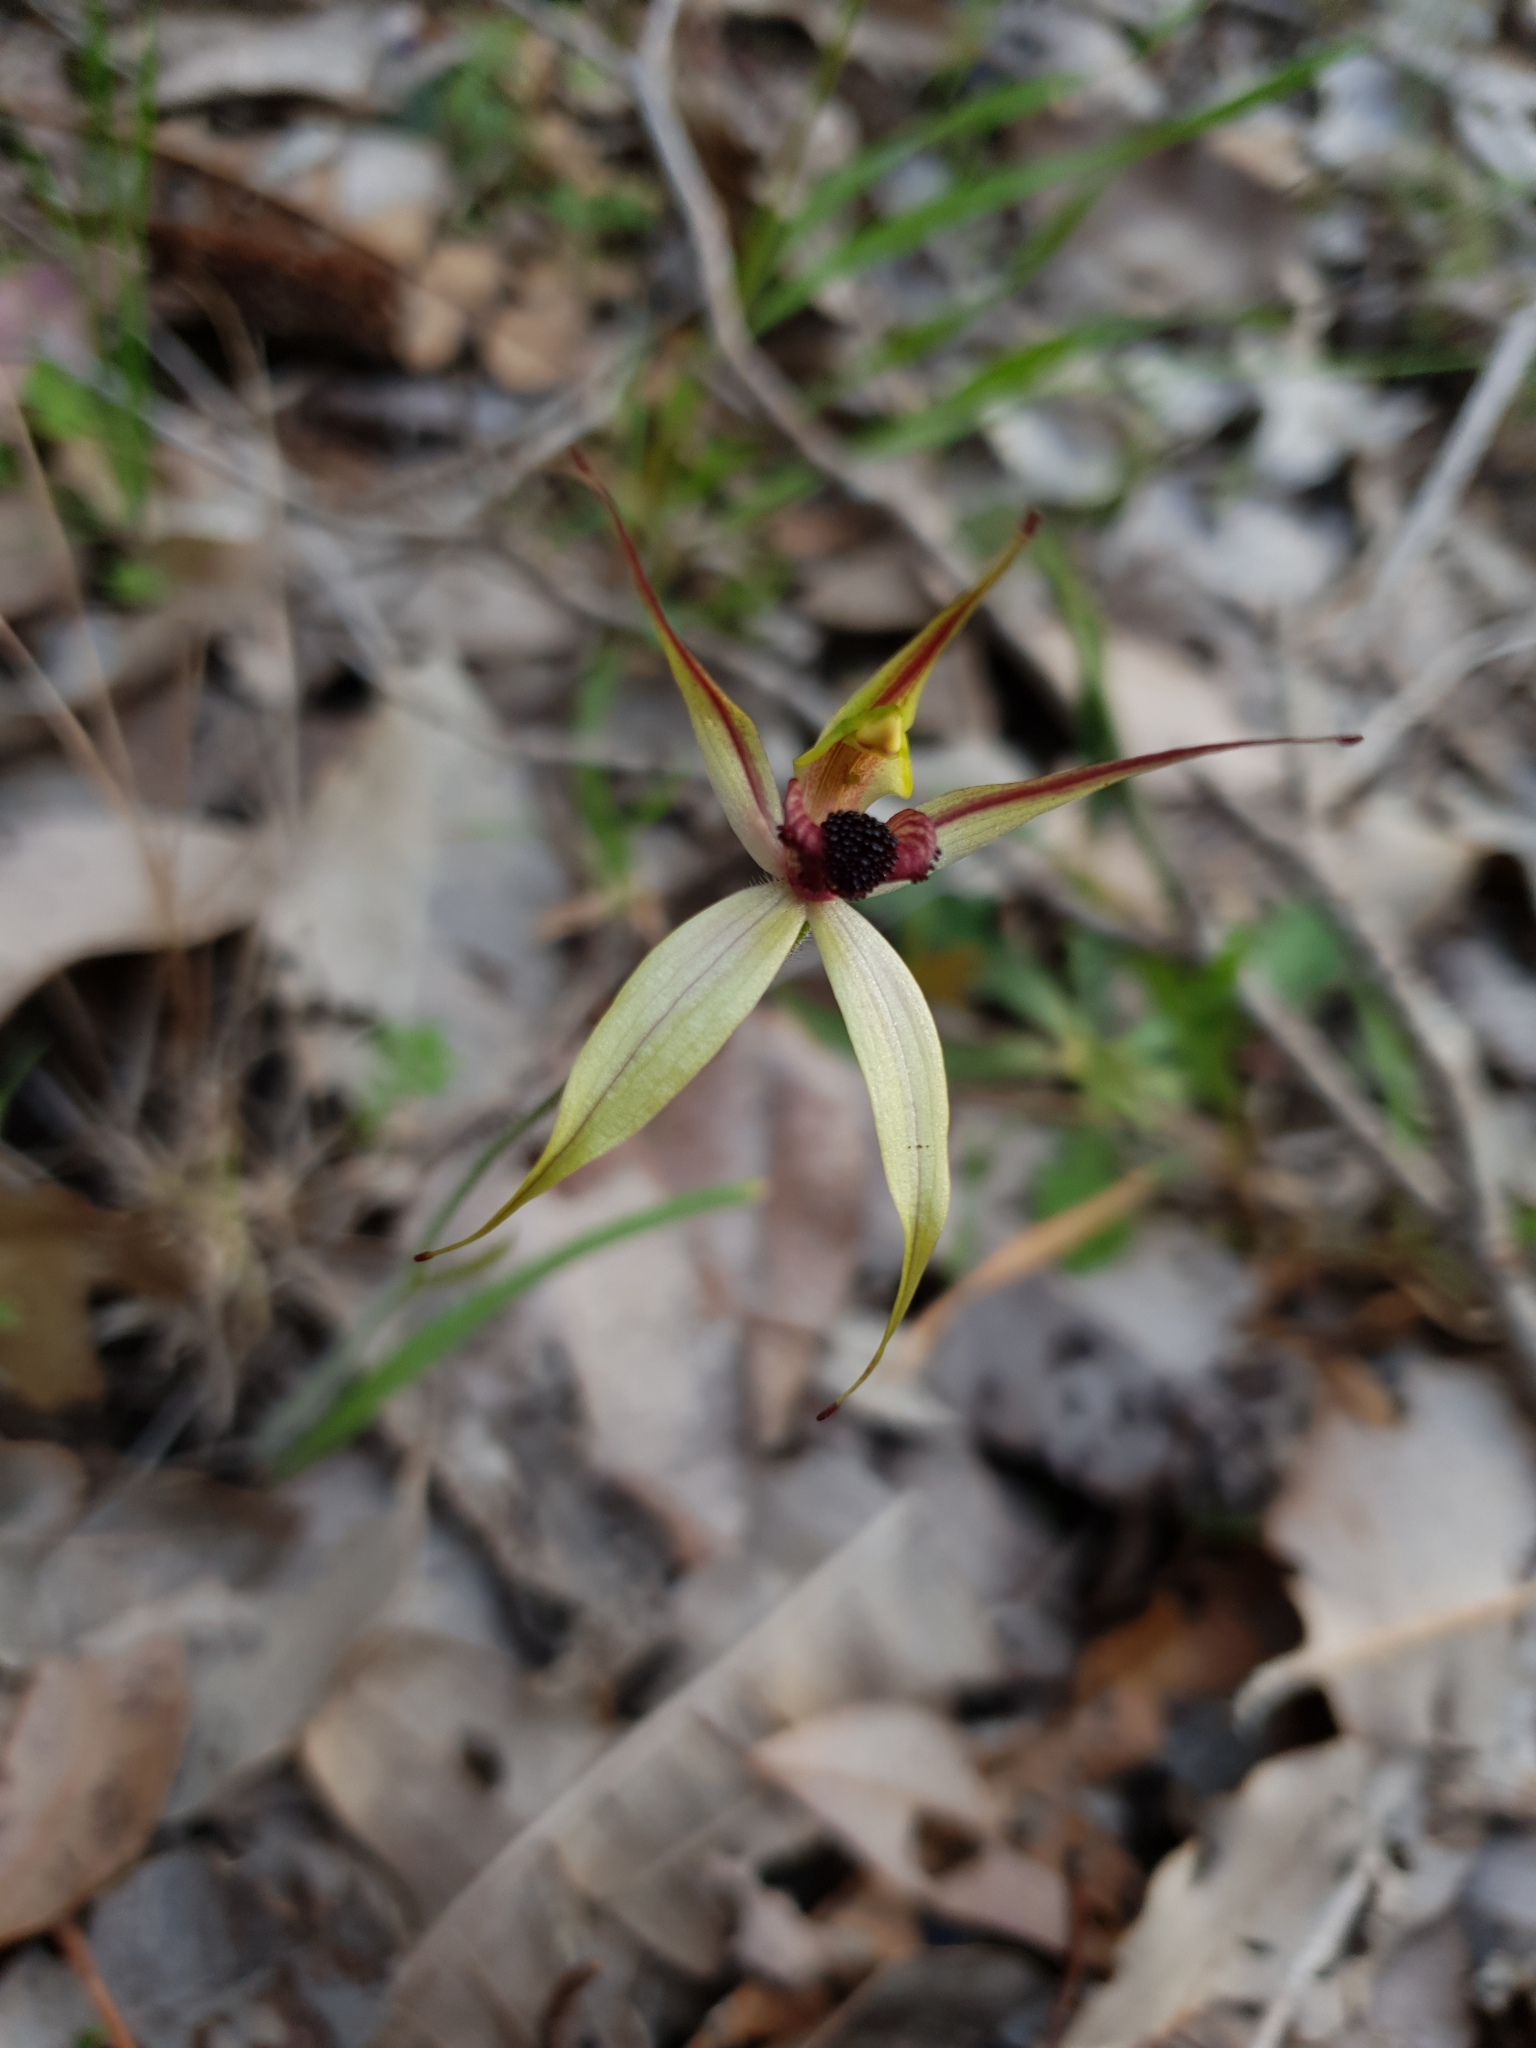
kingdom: Plantae
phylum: Tracheophyta
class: Liliopsida
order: Asparagales
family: Orchidaceae
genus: Caladenia
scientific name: Caladenia macrostylis
